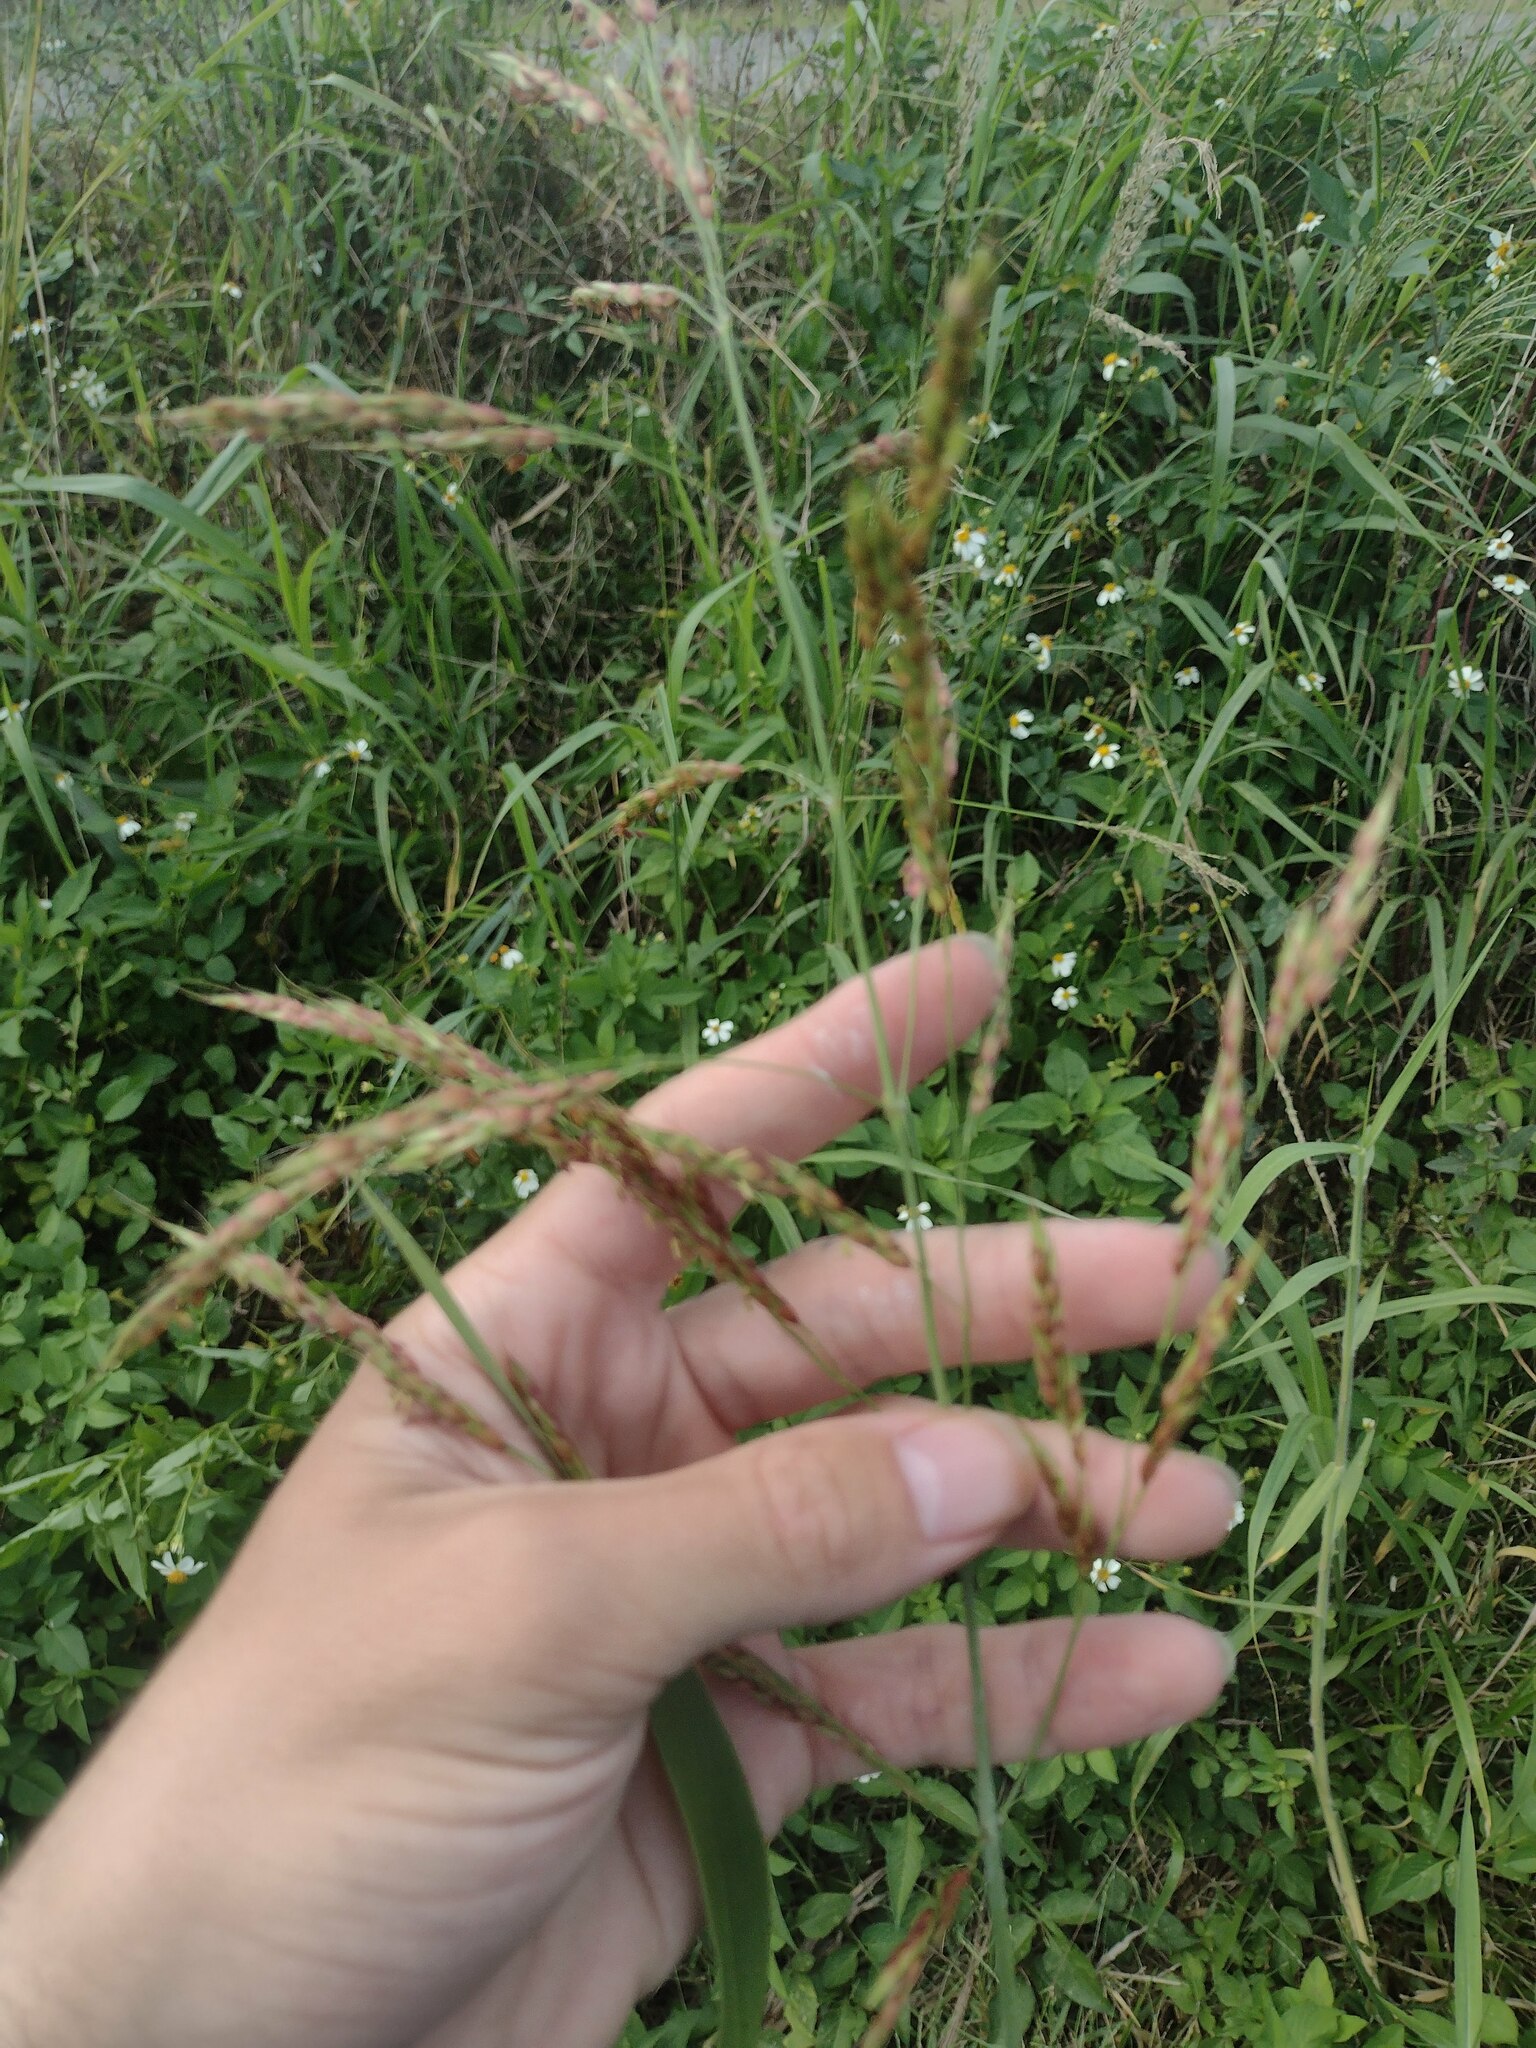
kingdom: Plantae
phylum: Tracheophyta
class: Liliopsida
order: Poales
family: Poaceae
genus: Sorghum
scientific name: Sorghum drummondii
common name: Sudangrass
